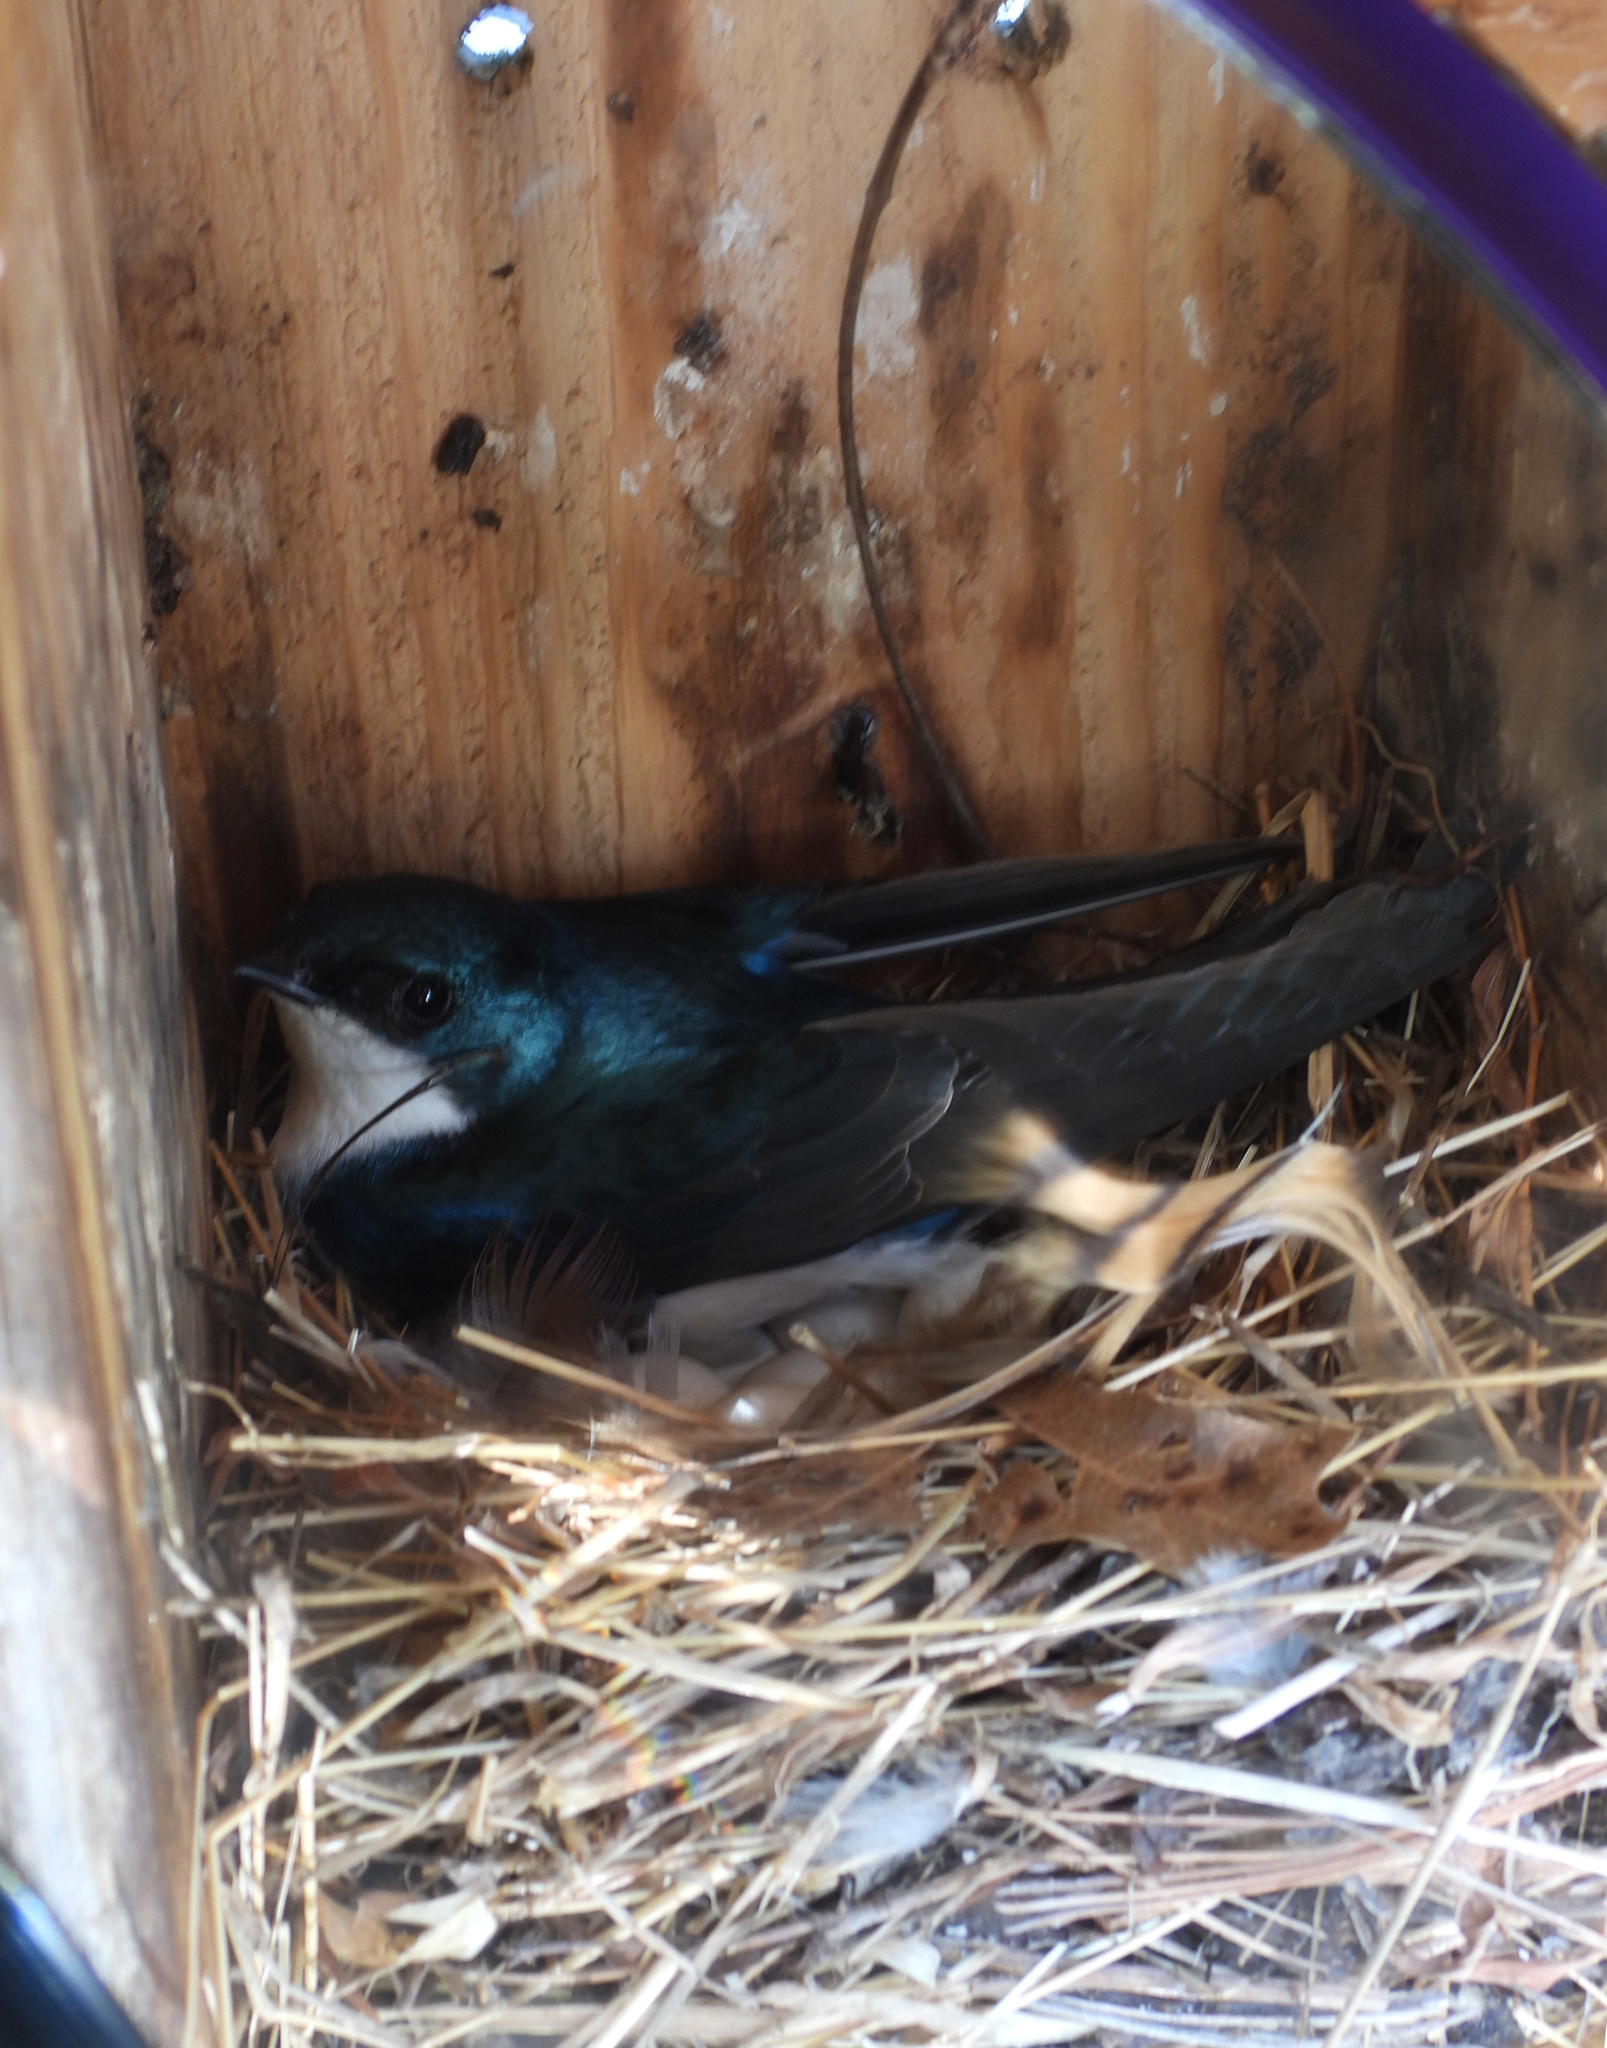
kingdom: Animalia
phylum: Chordata
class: Aves
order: Passeriformes
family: Hirundinidae
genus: Tachycineta
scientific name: Tachycineta bicolor
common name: Tree swallow
